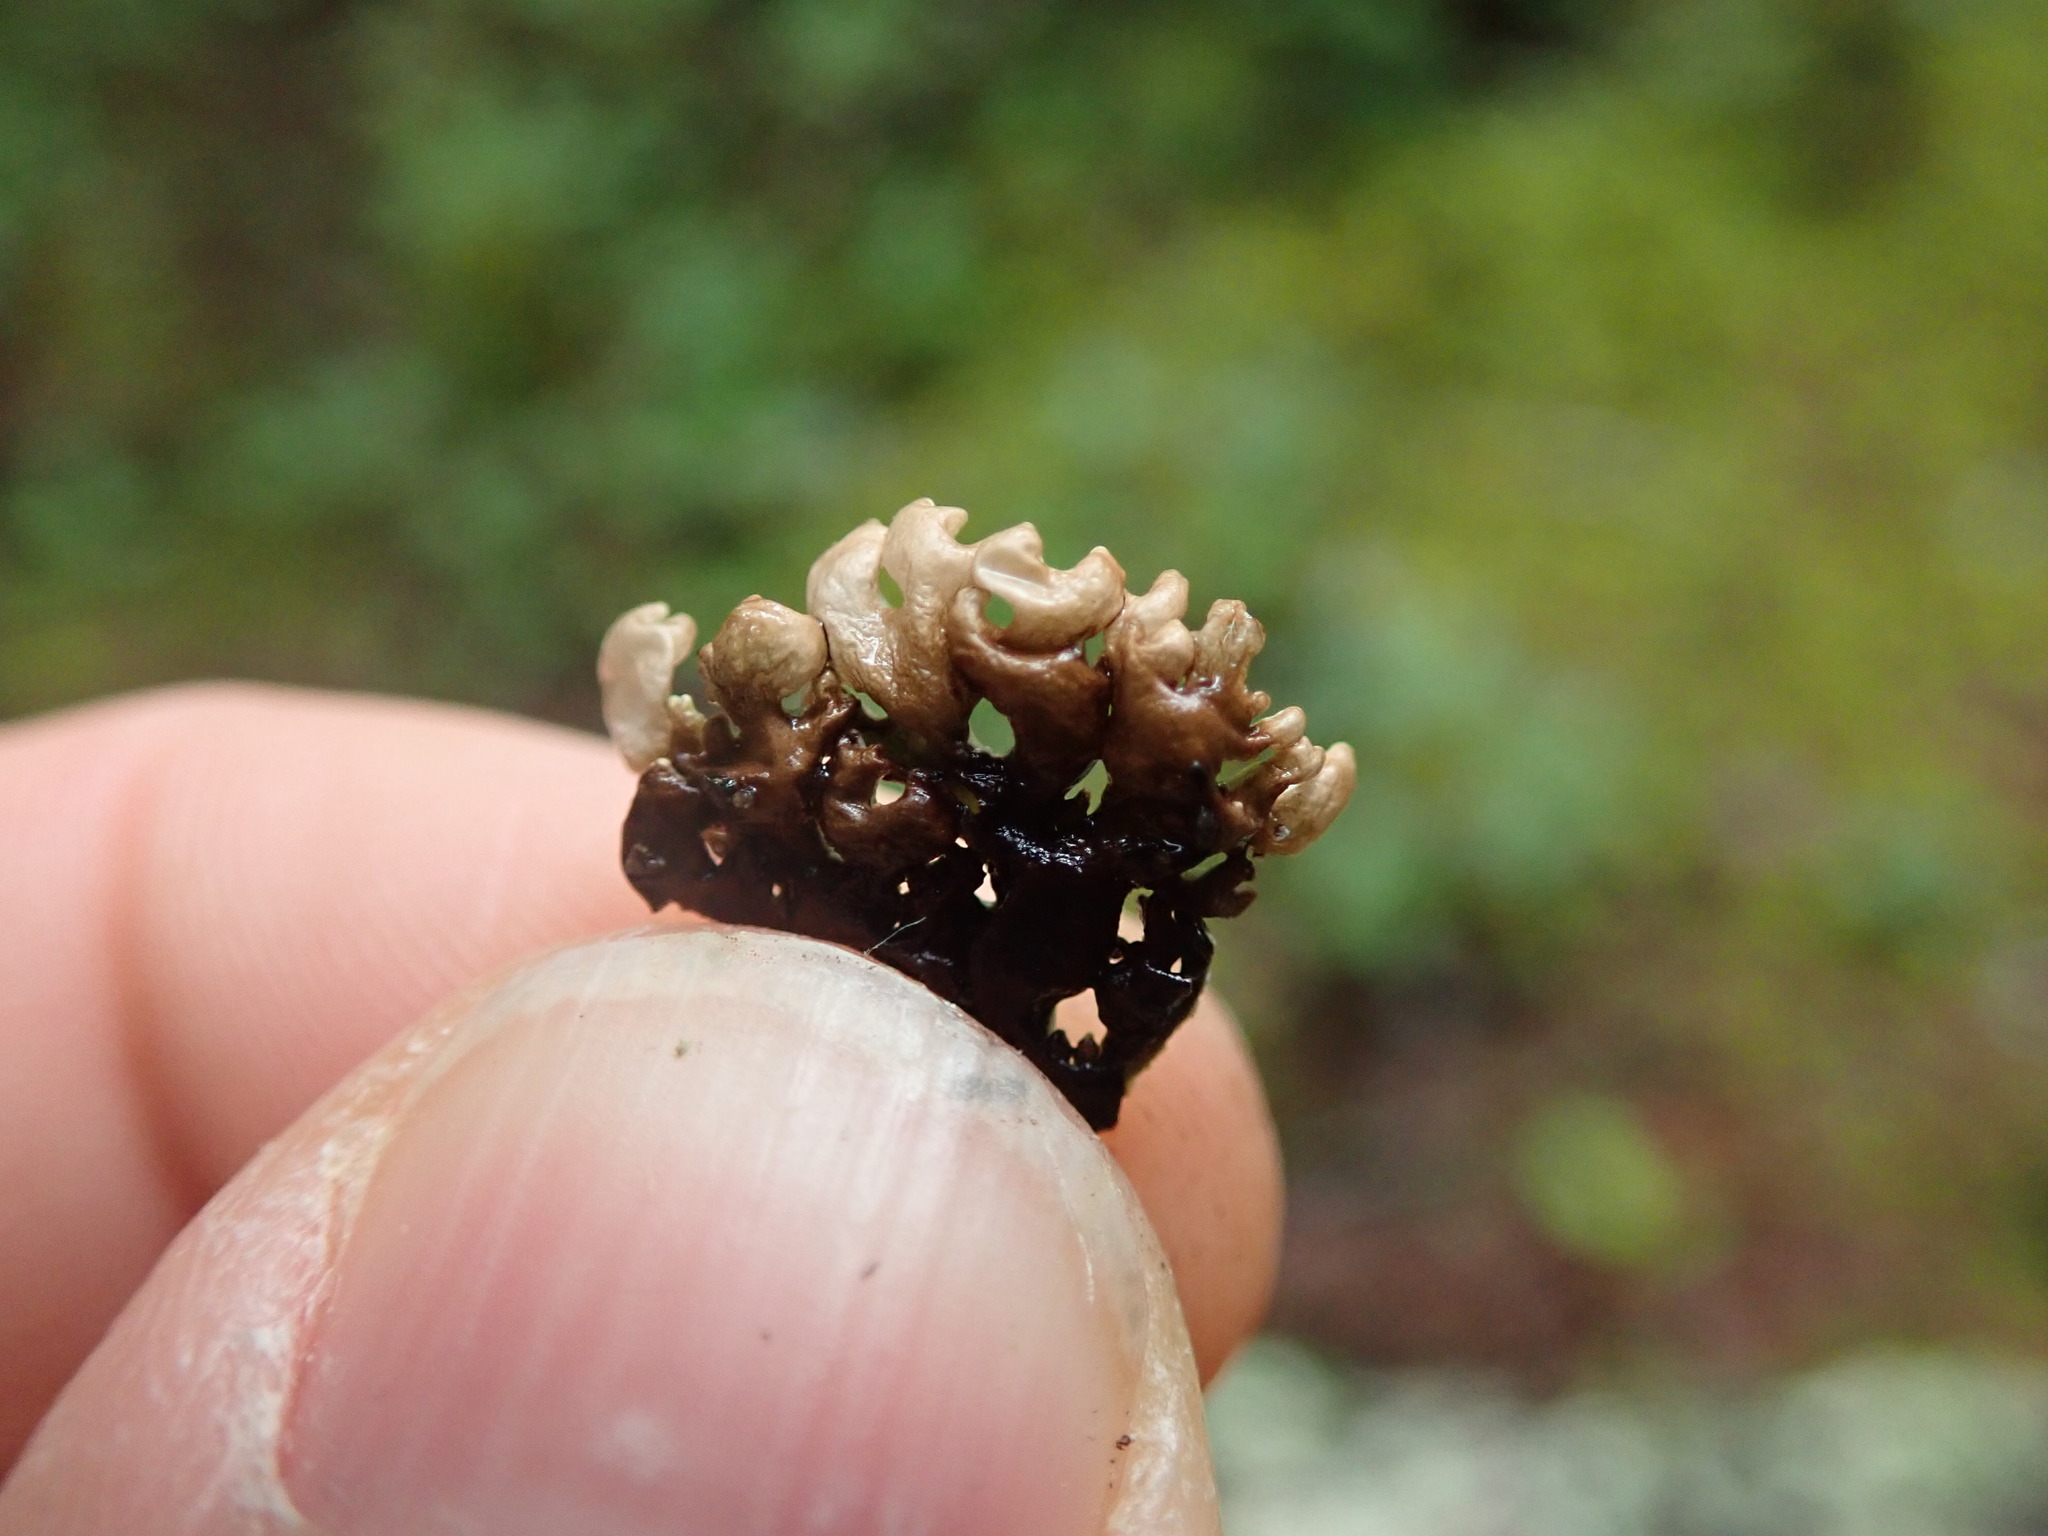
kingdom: Fungi
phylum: Ascomycota
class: Lecanoromycetes
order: Lecanorales
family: Parmeliaceae
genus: Hypogymnia
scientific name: Hypogymnia physodes
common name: Dark crottle
